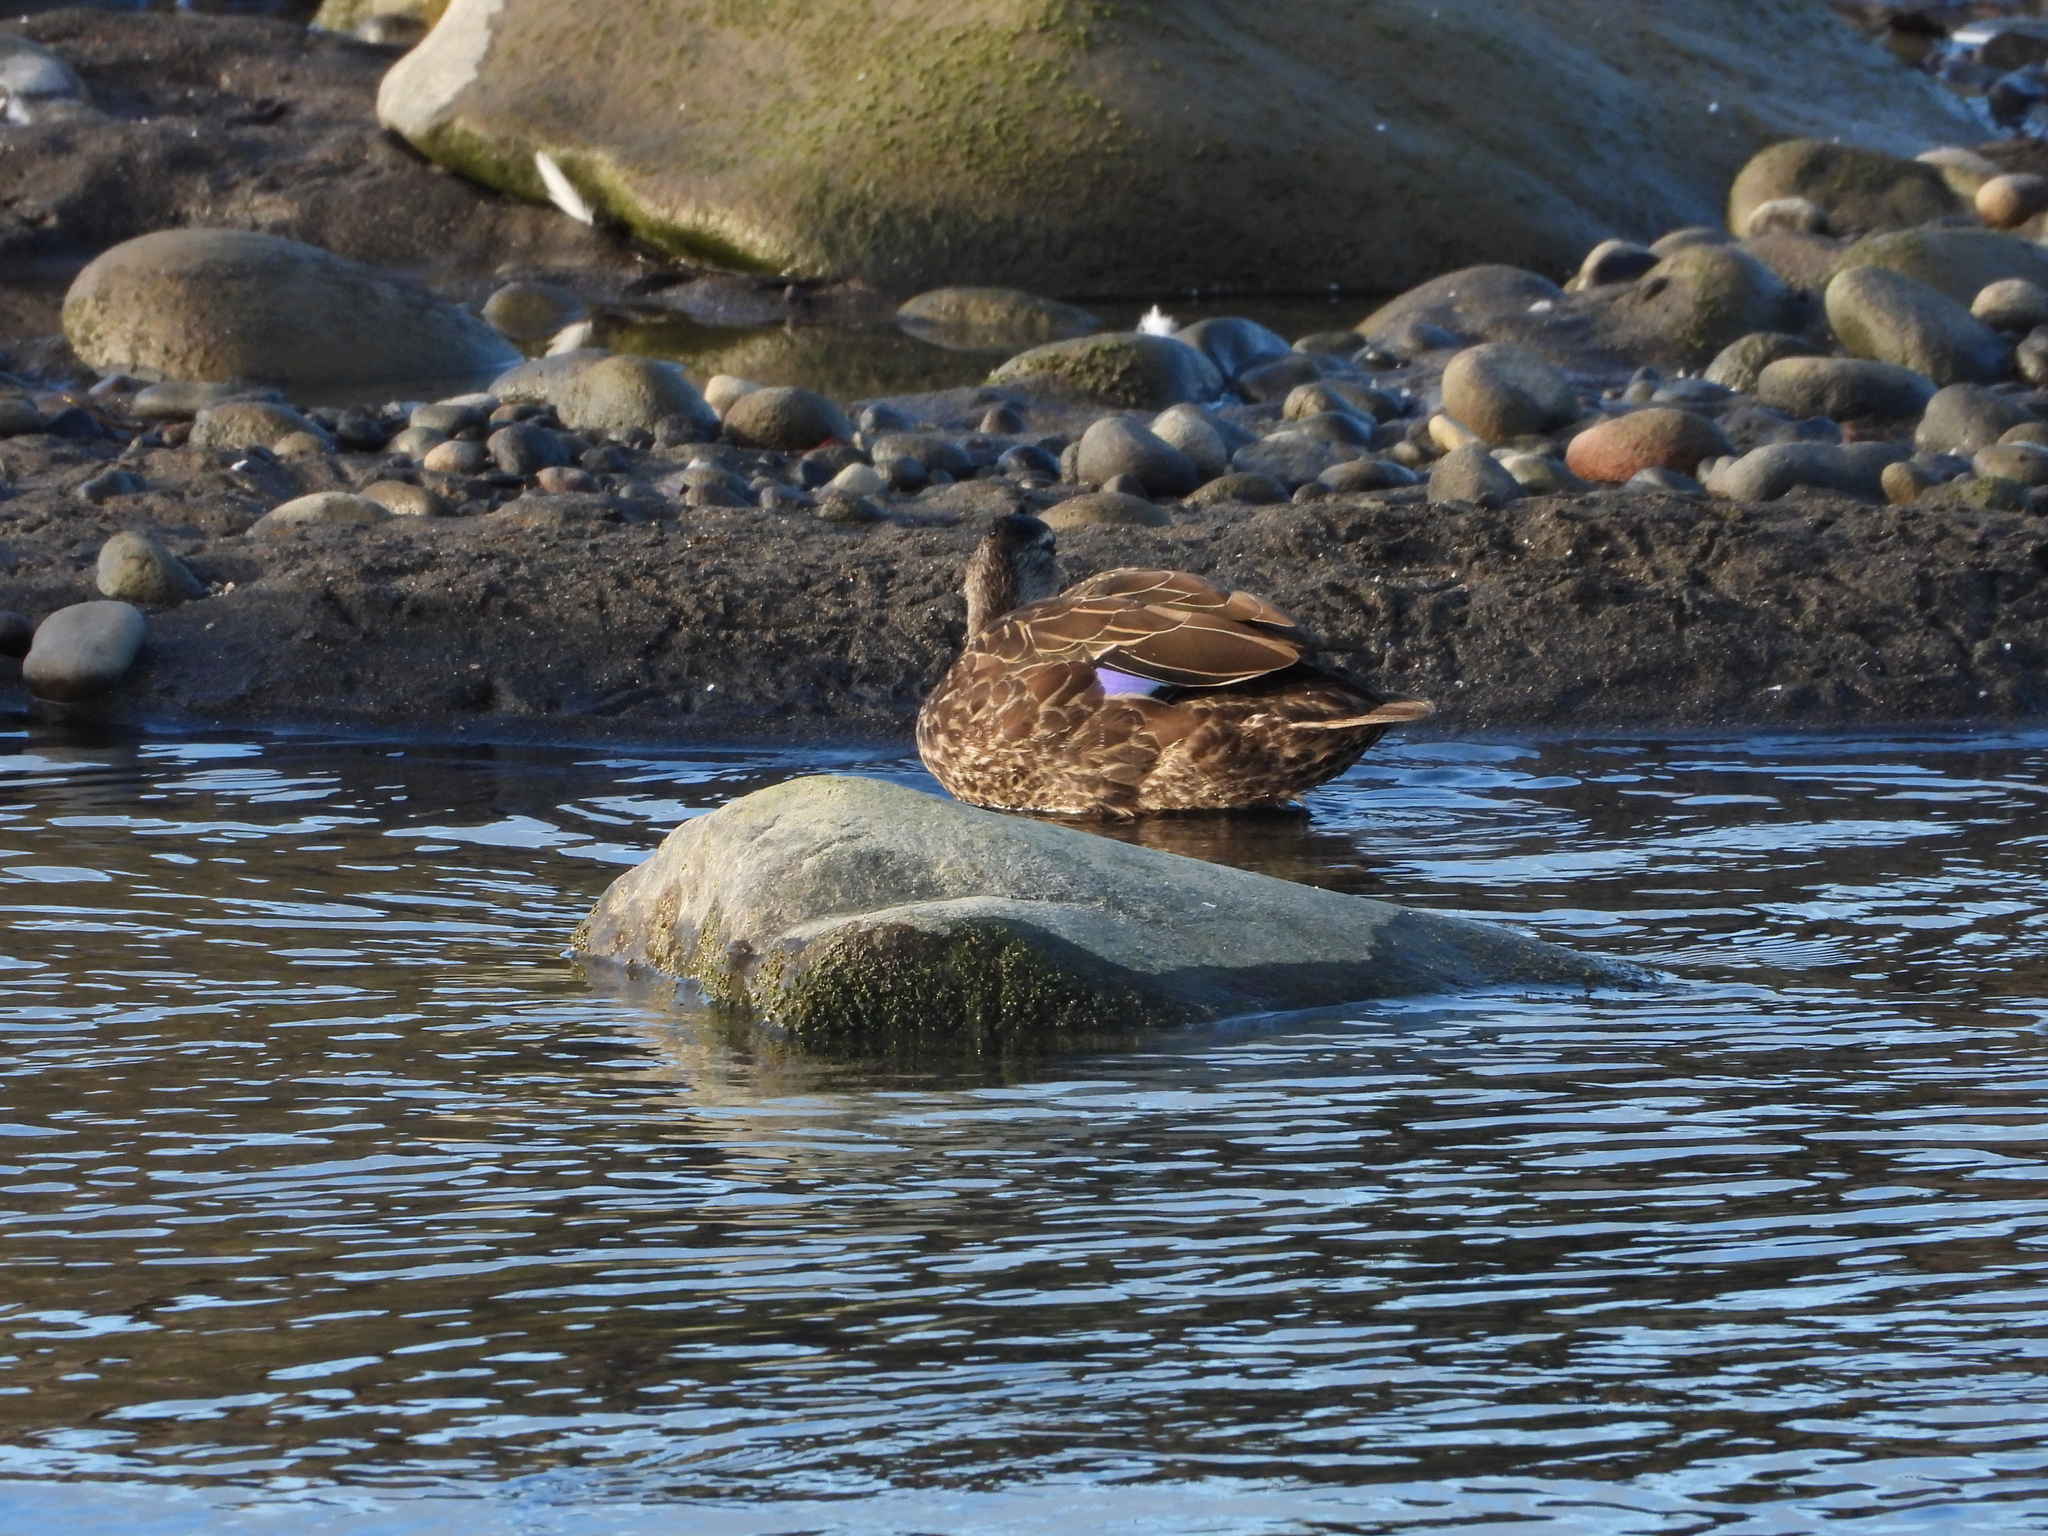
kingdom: Animalia
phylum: Chordata
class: Aves
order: Anseriformes
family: Anatidae
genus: Anas
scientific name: Anas platyrhynchos
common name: Mallard
